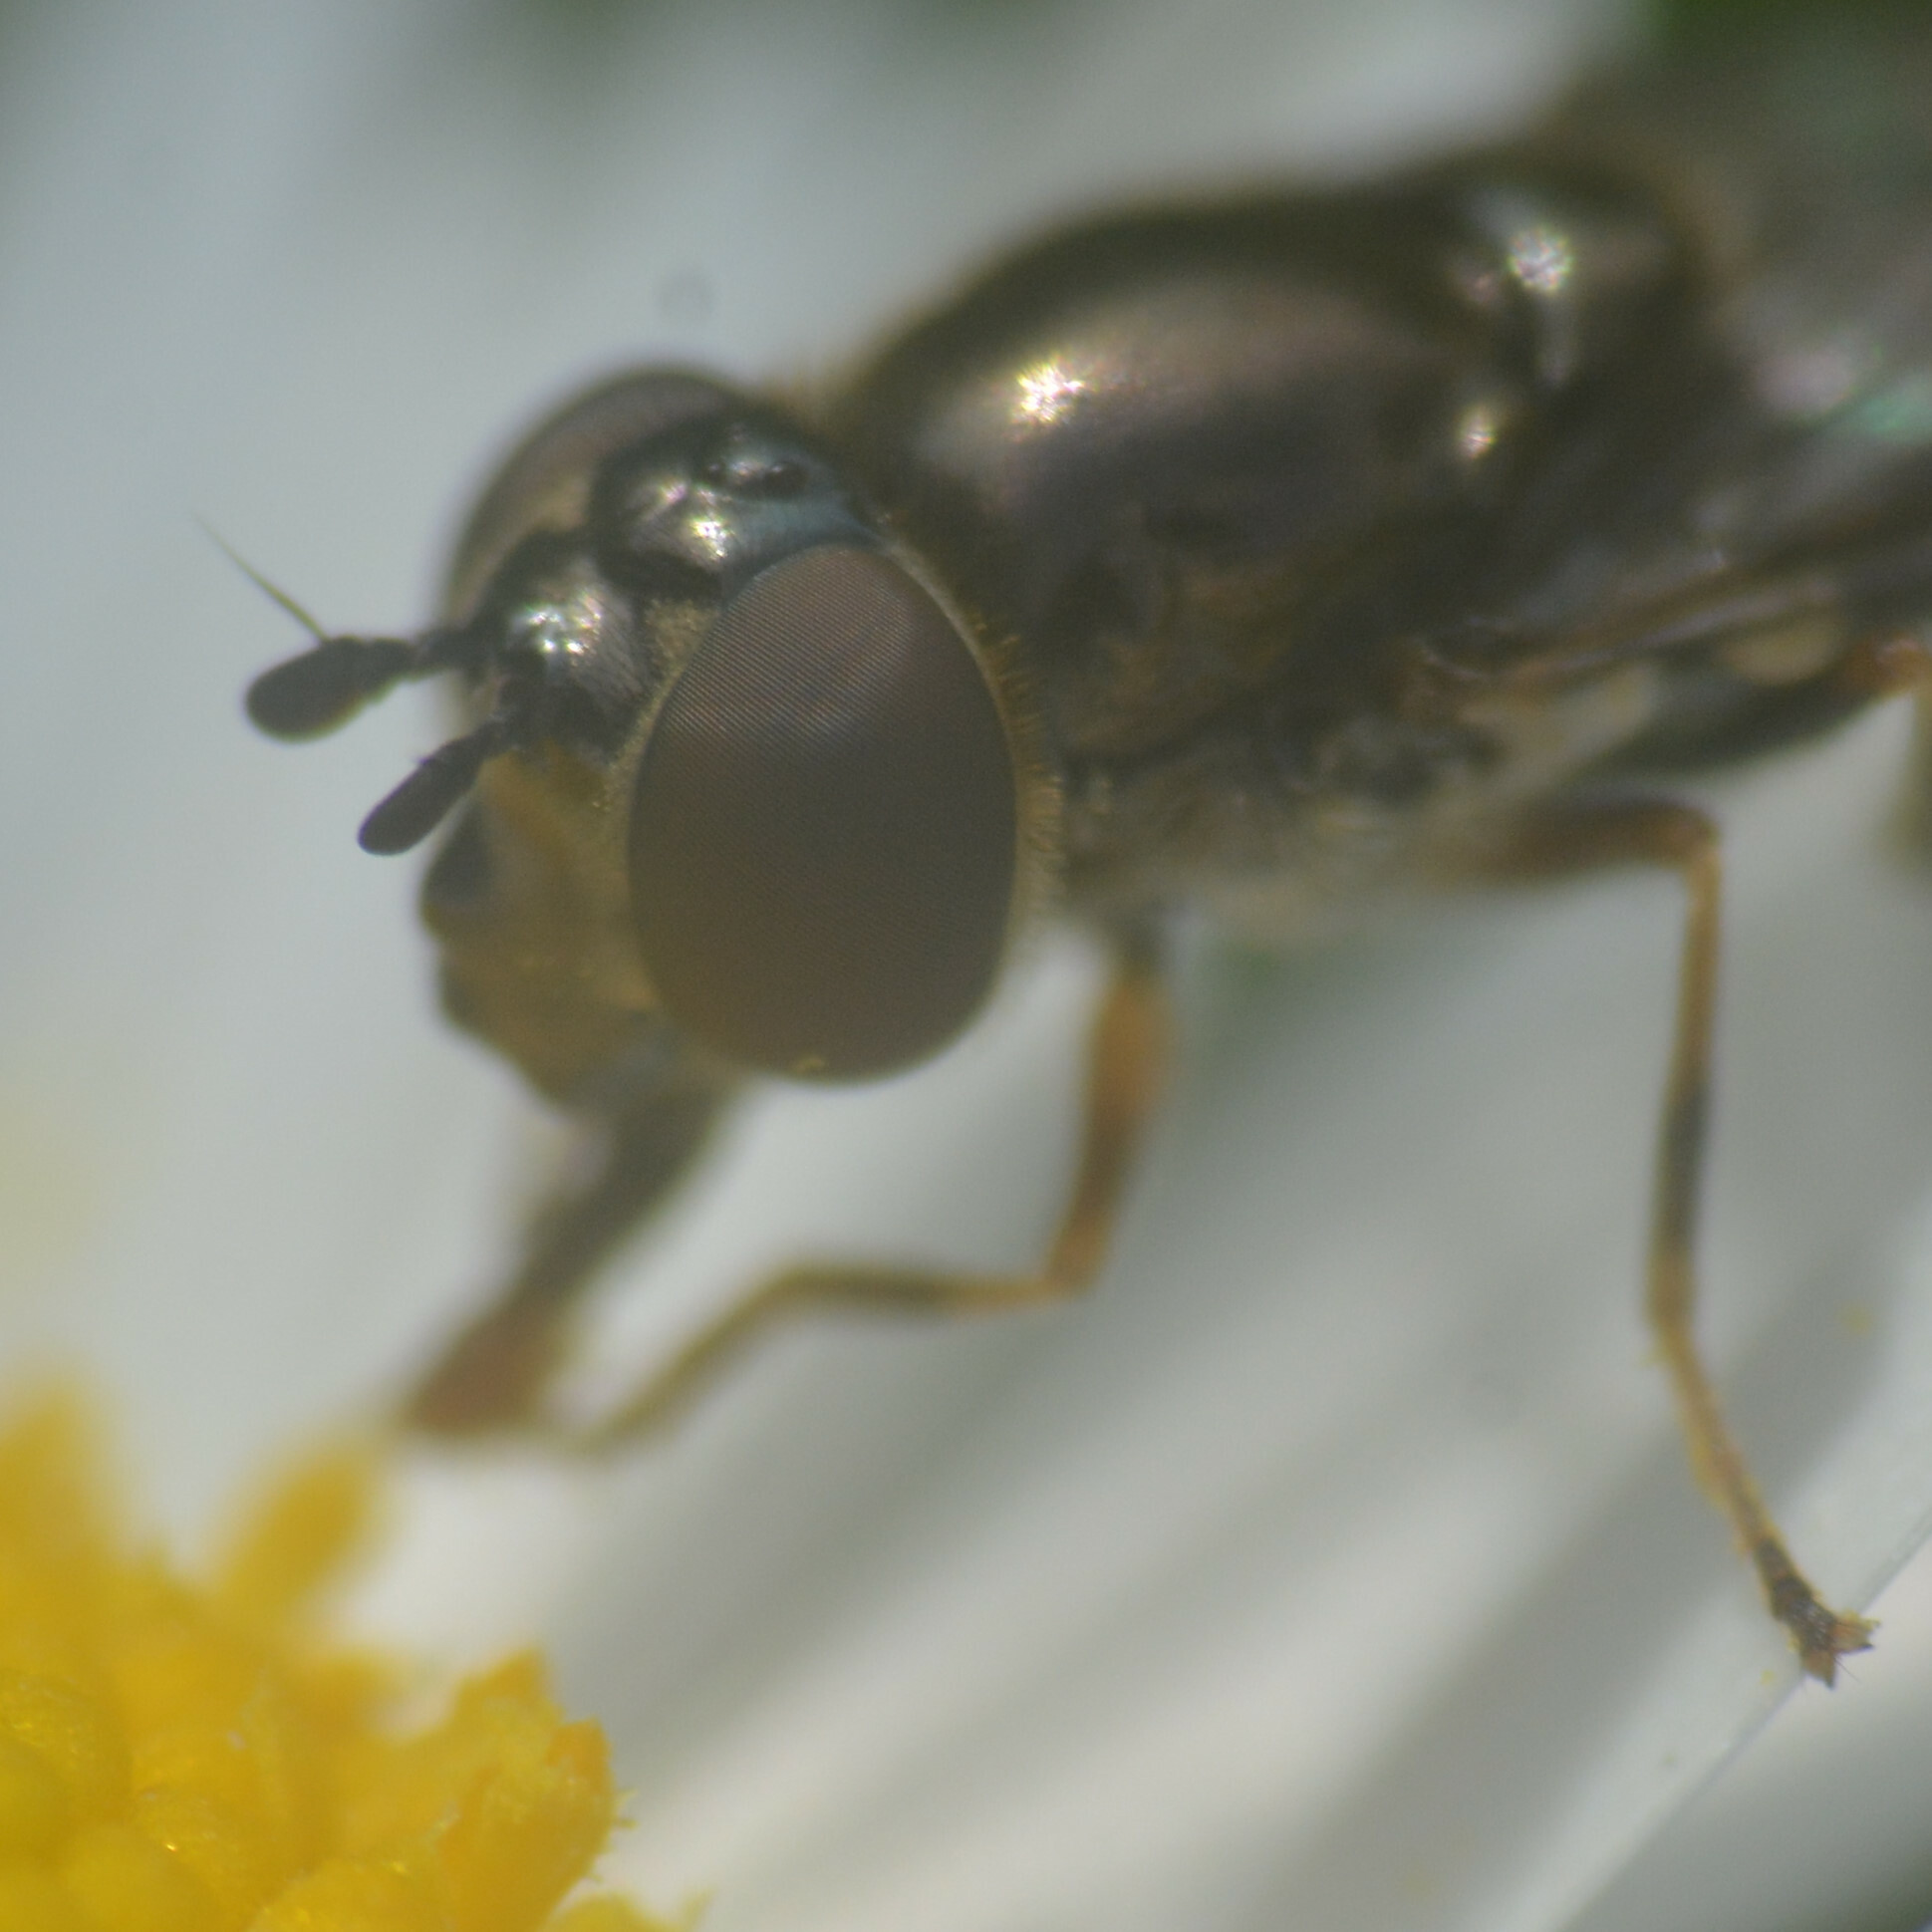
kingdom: Animalia
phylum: Arthropoda
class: Insecta
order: Diptera
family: Syrphidae
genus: Platycheirus
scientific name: Platycheirus albimanus
